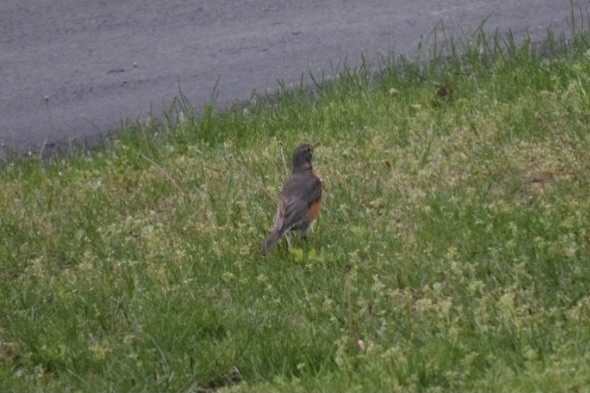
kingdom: Animalia
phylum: Chordata
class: Aves
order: Passeriformes
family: Turdidae
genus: Turdus
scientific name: Turdus migratorius
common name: American robin
